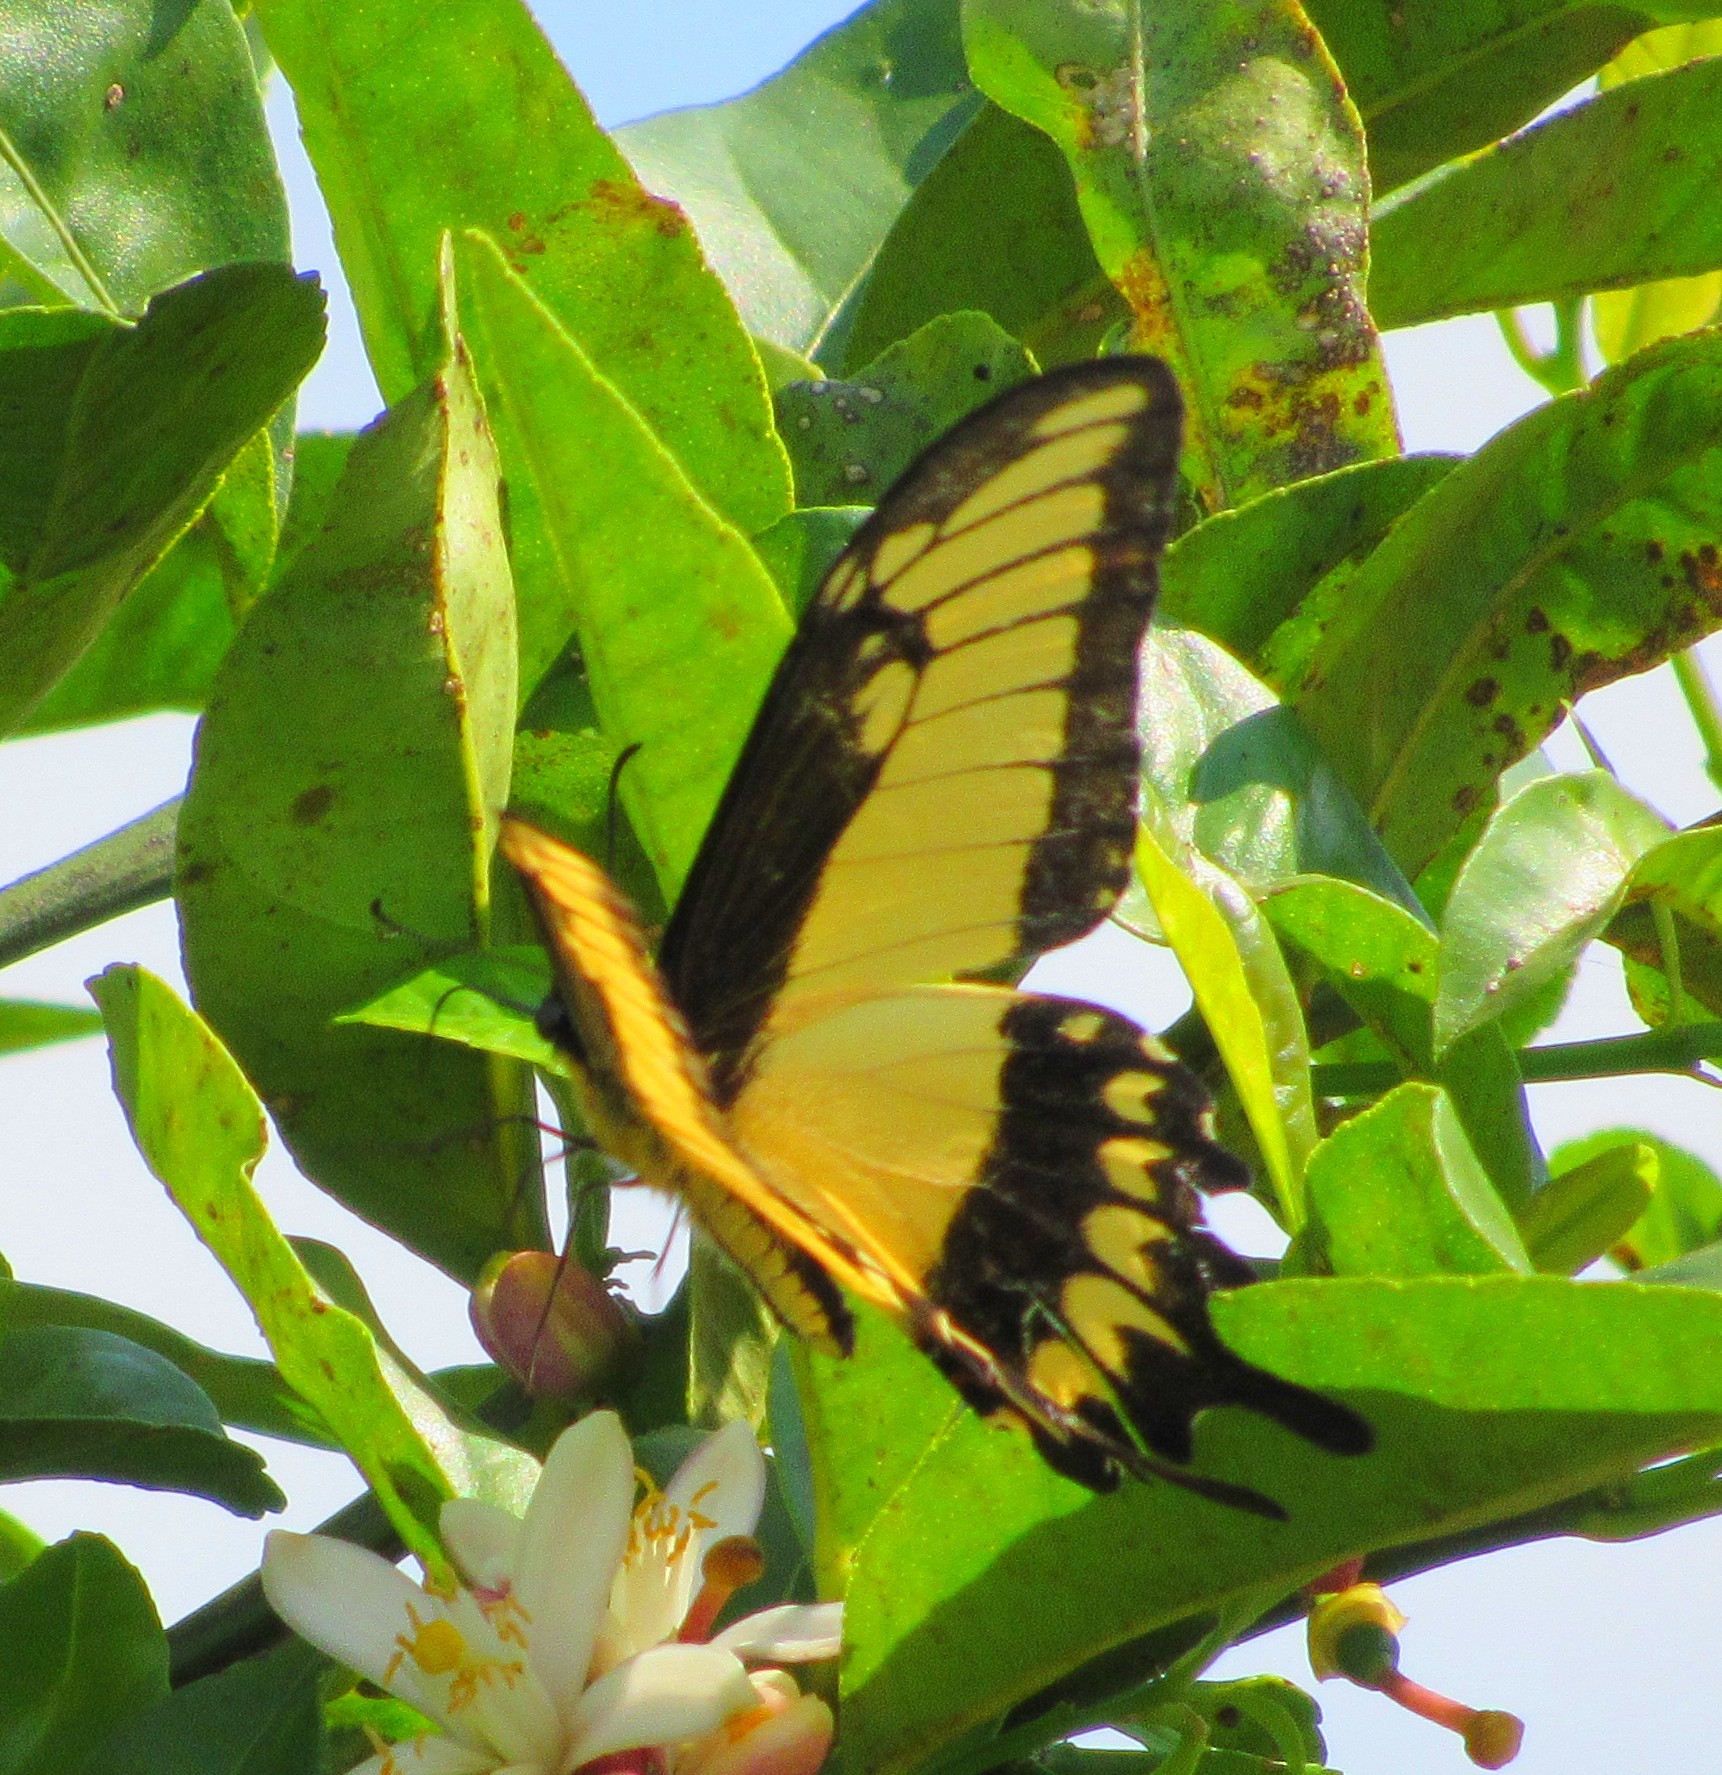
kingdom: Animalia
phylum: Arthropoda
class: Insecta
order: Lepidoptera
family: Papilionidae
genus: Papilio
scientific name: Papilio astyalus
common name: Astyalus swallowtail
